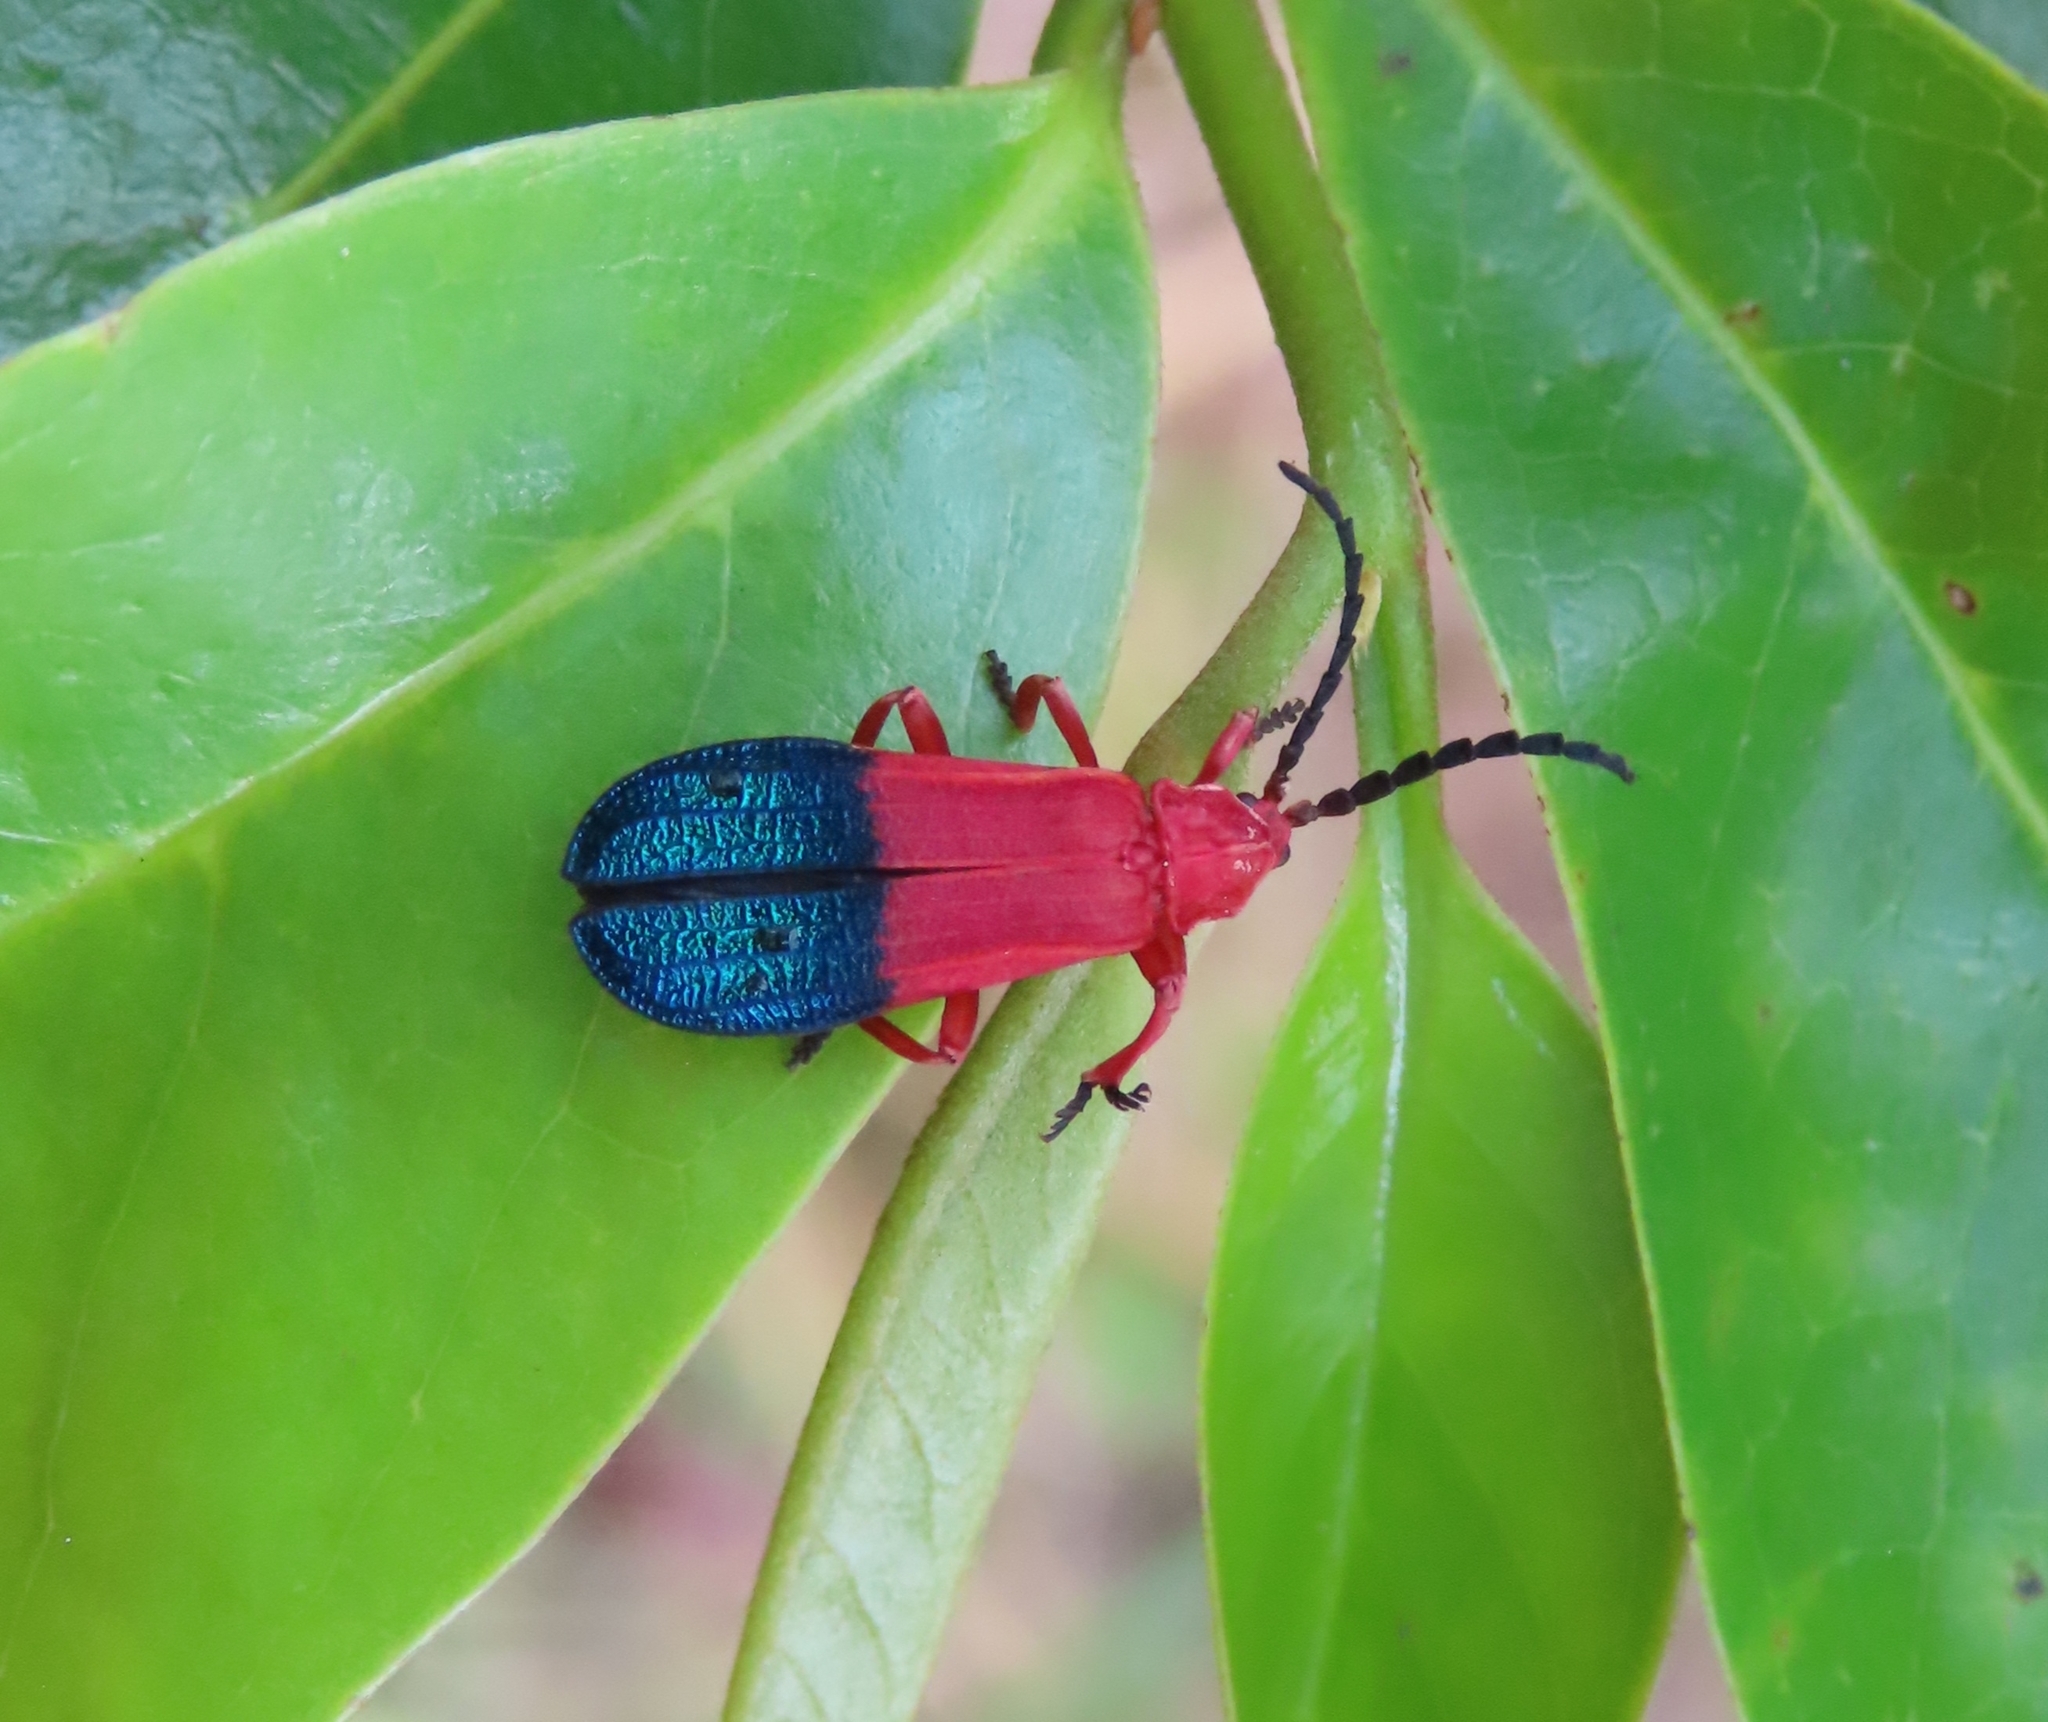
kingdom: Animalia
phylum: Arthropoda
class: Insecta
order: Coleoptera
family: Lycidae
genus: Thonalmus
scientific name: Thonalmus bicolor
